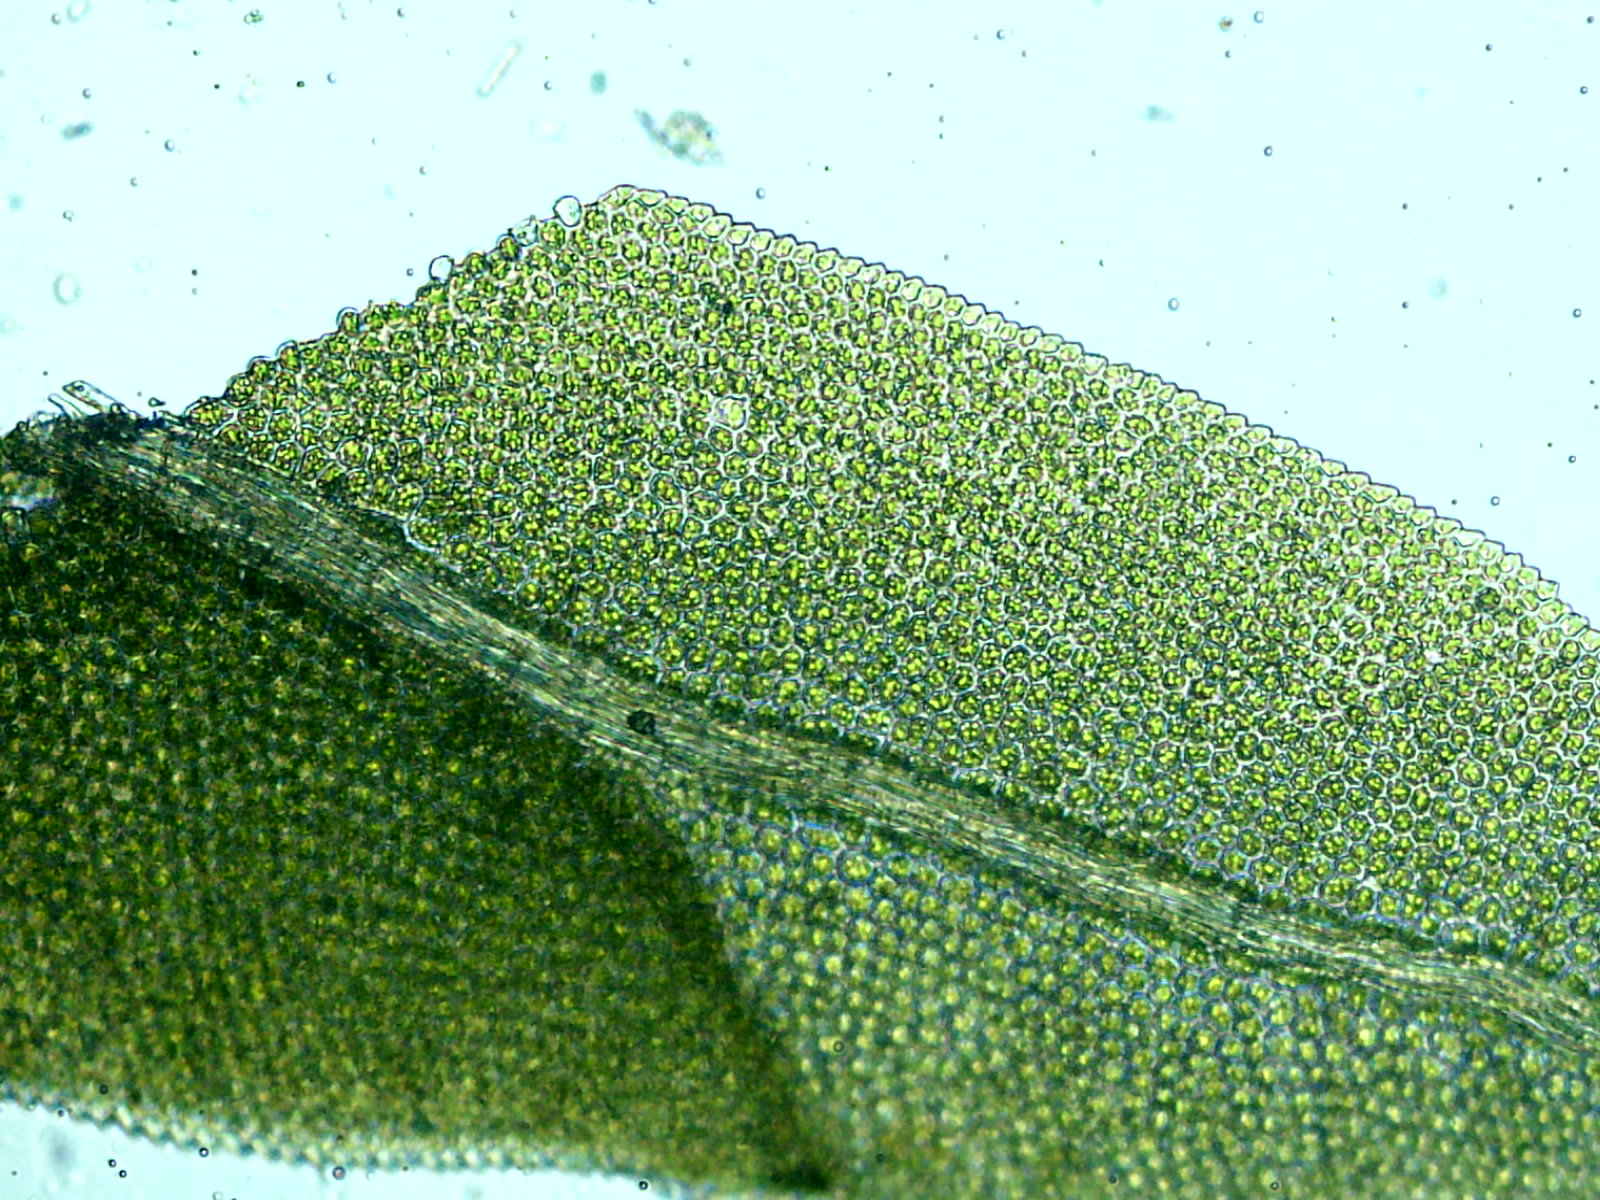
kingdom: Plantae
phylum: Bryophyta
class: Bryopsida
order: Dicranales
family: Fissidentaceae
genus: Fissidens
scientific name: Fissidens taxifolius
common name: Yew-leaved pocket moss
